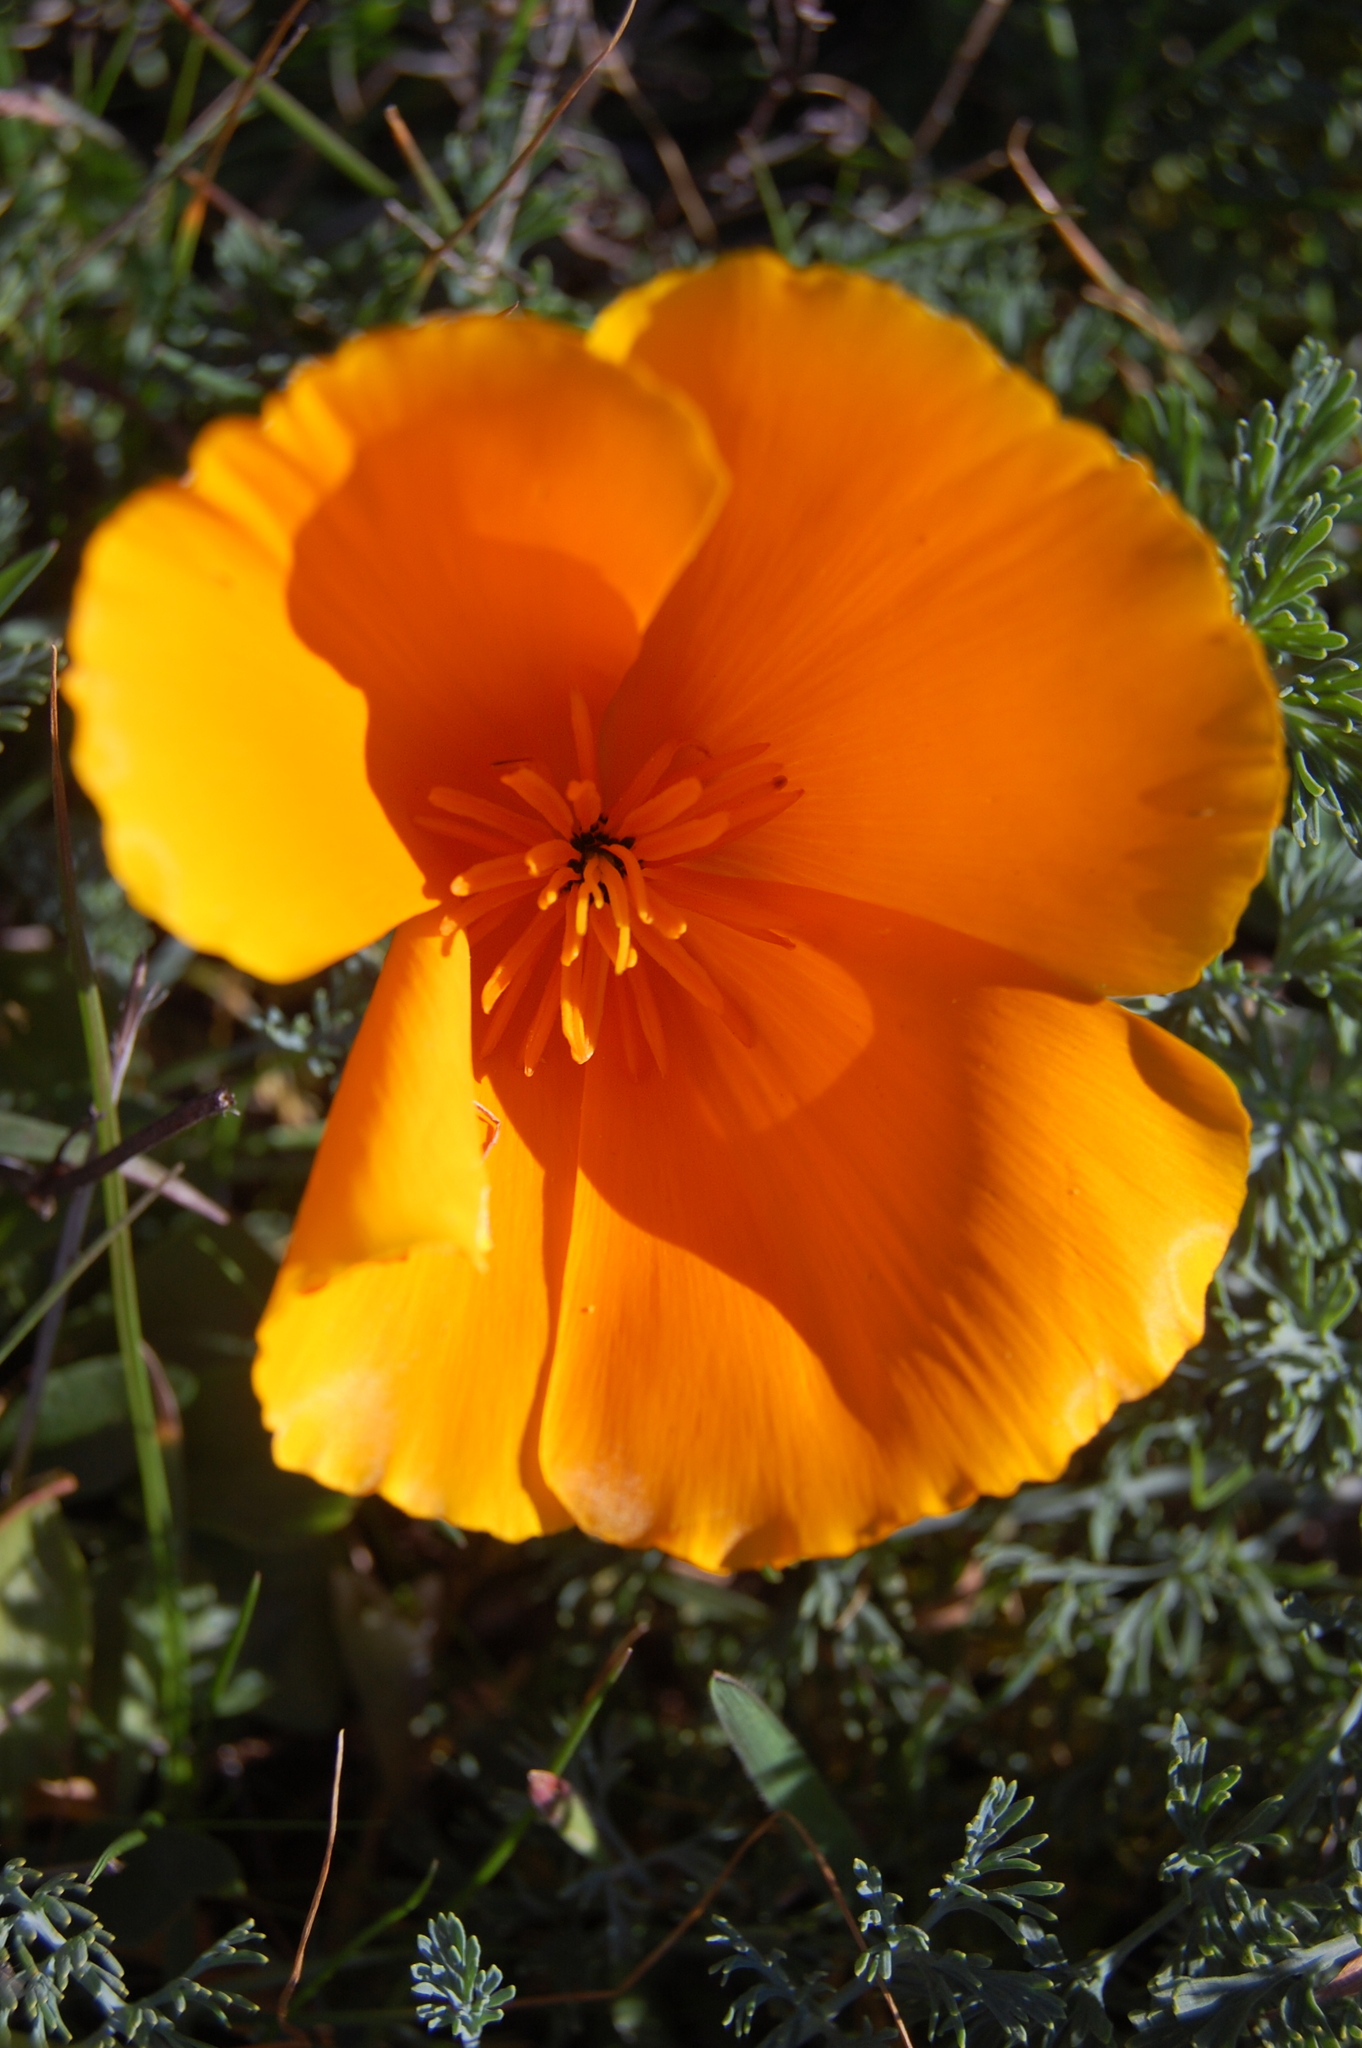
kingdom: Plantae
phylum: Tracheophyta
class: Magnoliopsida
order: Ranunculales
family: Papaveraceae
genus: Eschscholzia
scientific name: Eschscholzia californica
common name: California poppy
